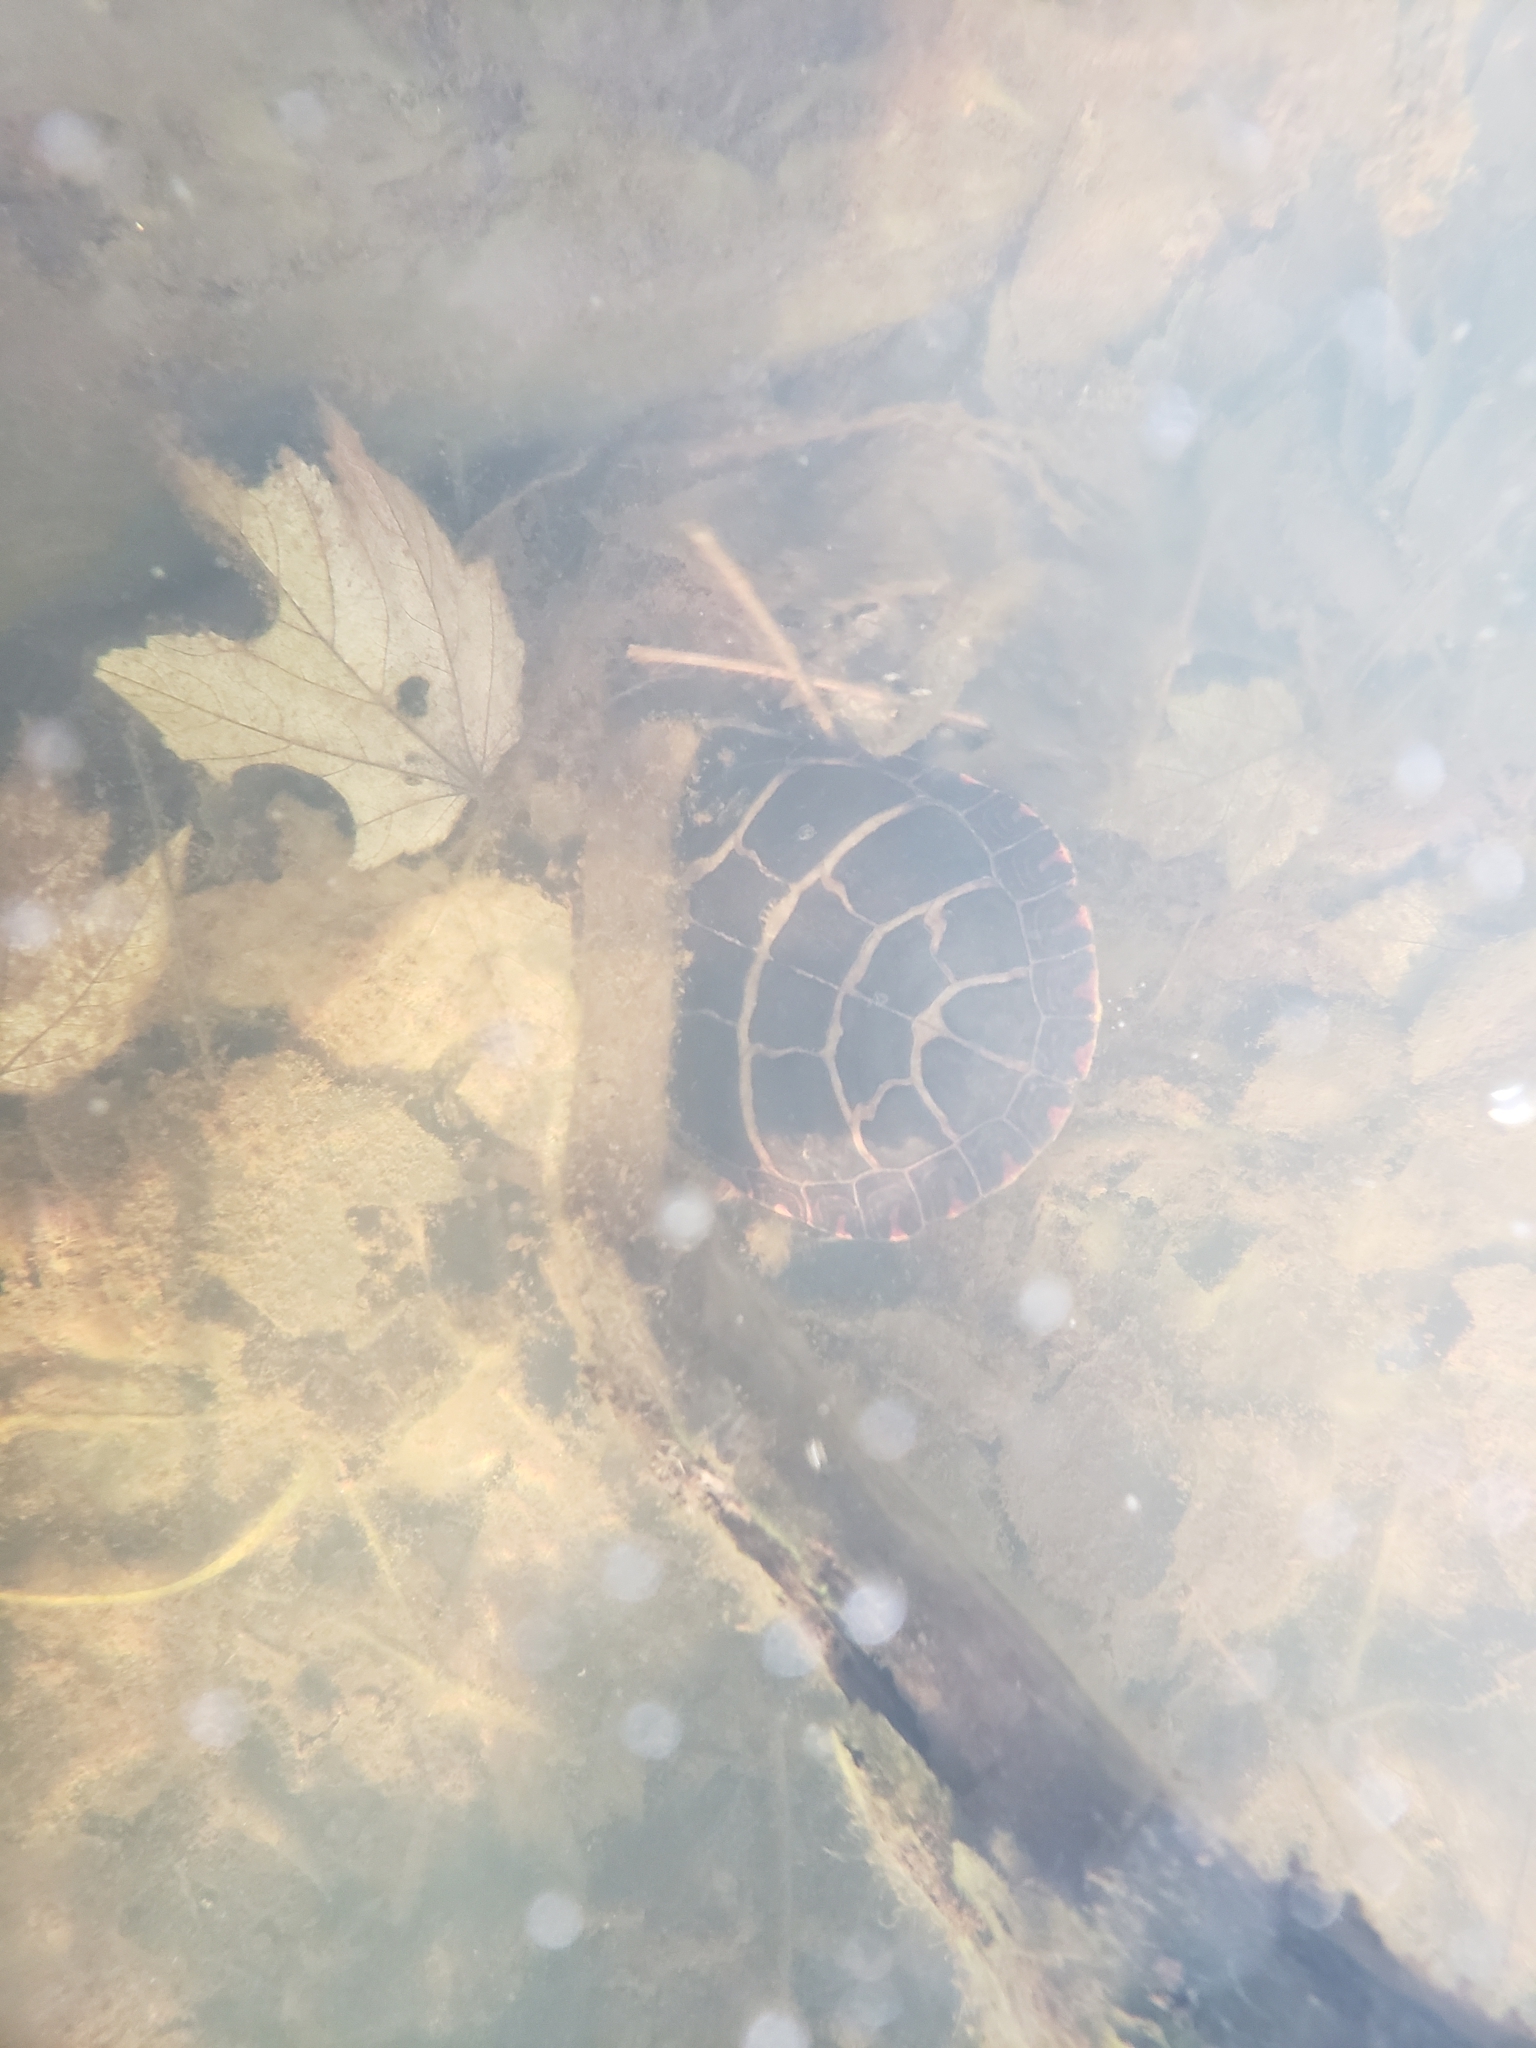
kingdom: Animalia
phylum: Chordata
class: Testudines
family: Emydidae
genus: Chrysemys
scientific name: Chrysemys picta
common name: Painted turtle
